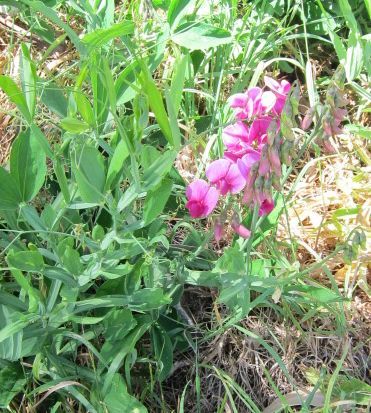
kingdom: Plantae
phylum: Tracheophyta
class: Magnoliopsida
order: Fabales
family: Fabaceae
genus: Lathyrus
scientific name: Lathyrus latifolius
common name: Perennial pea
